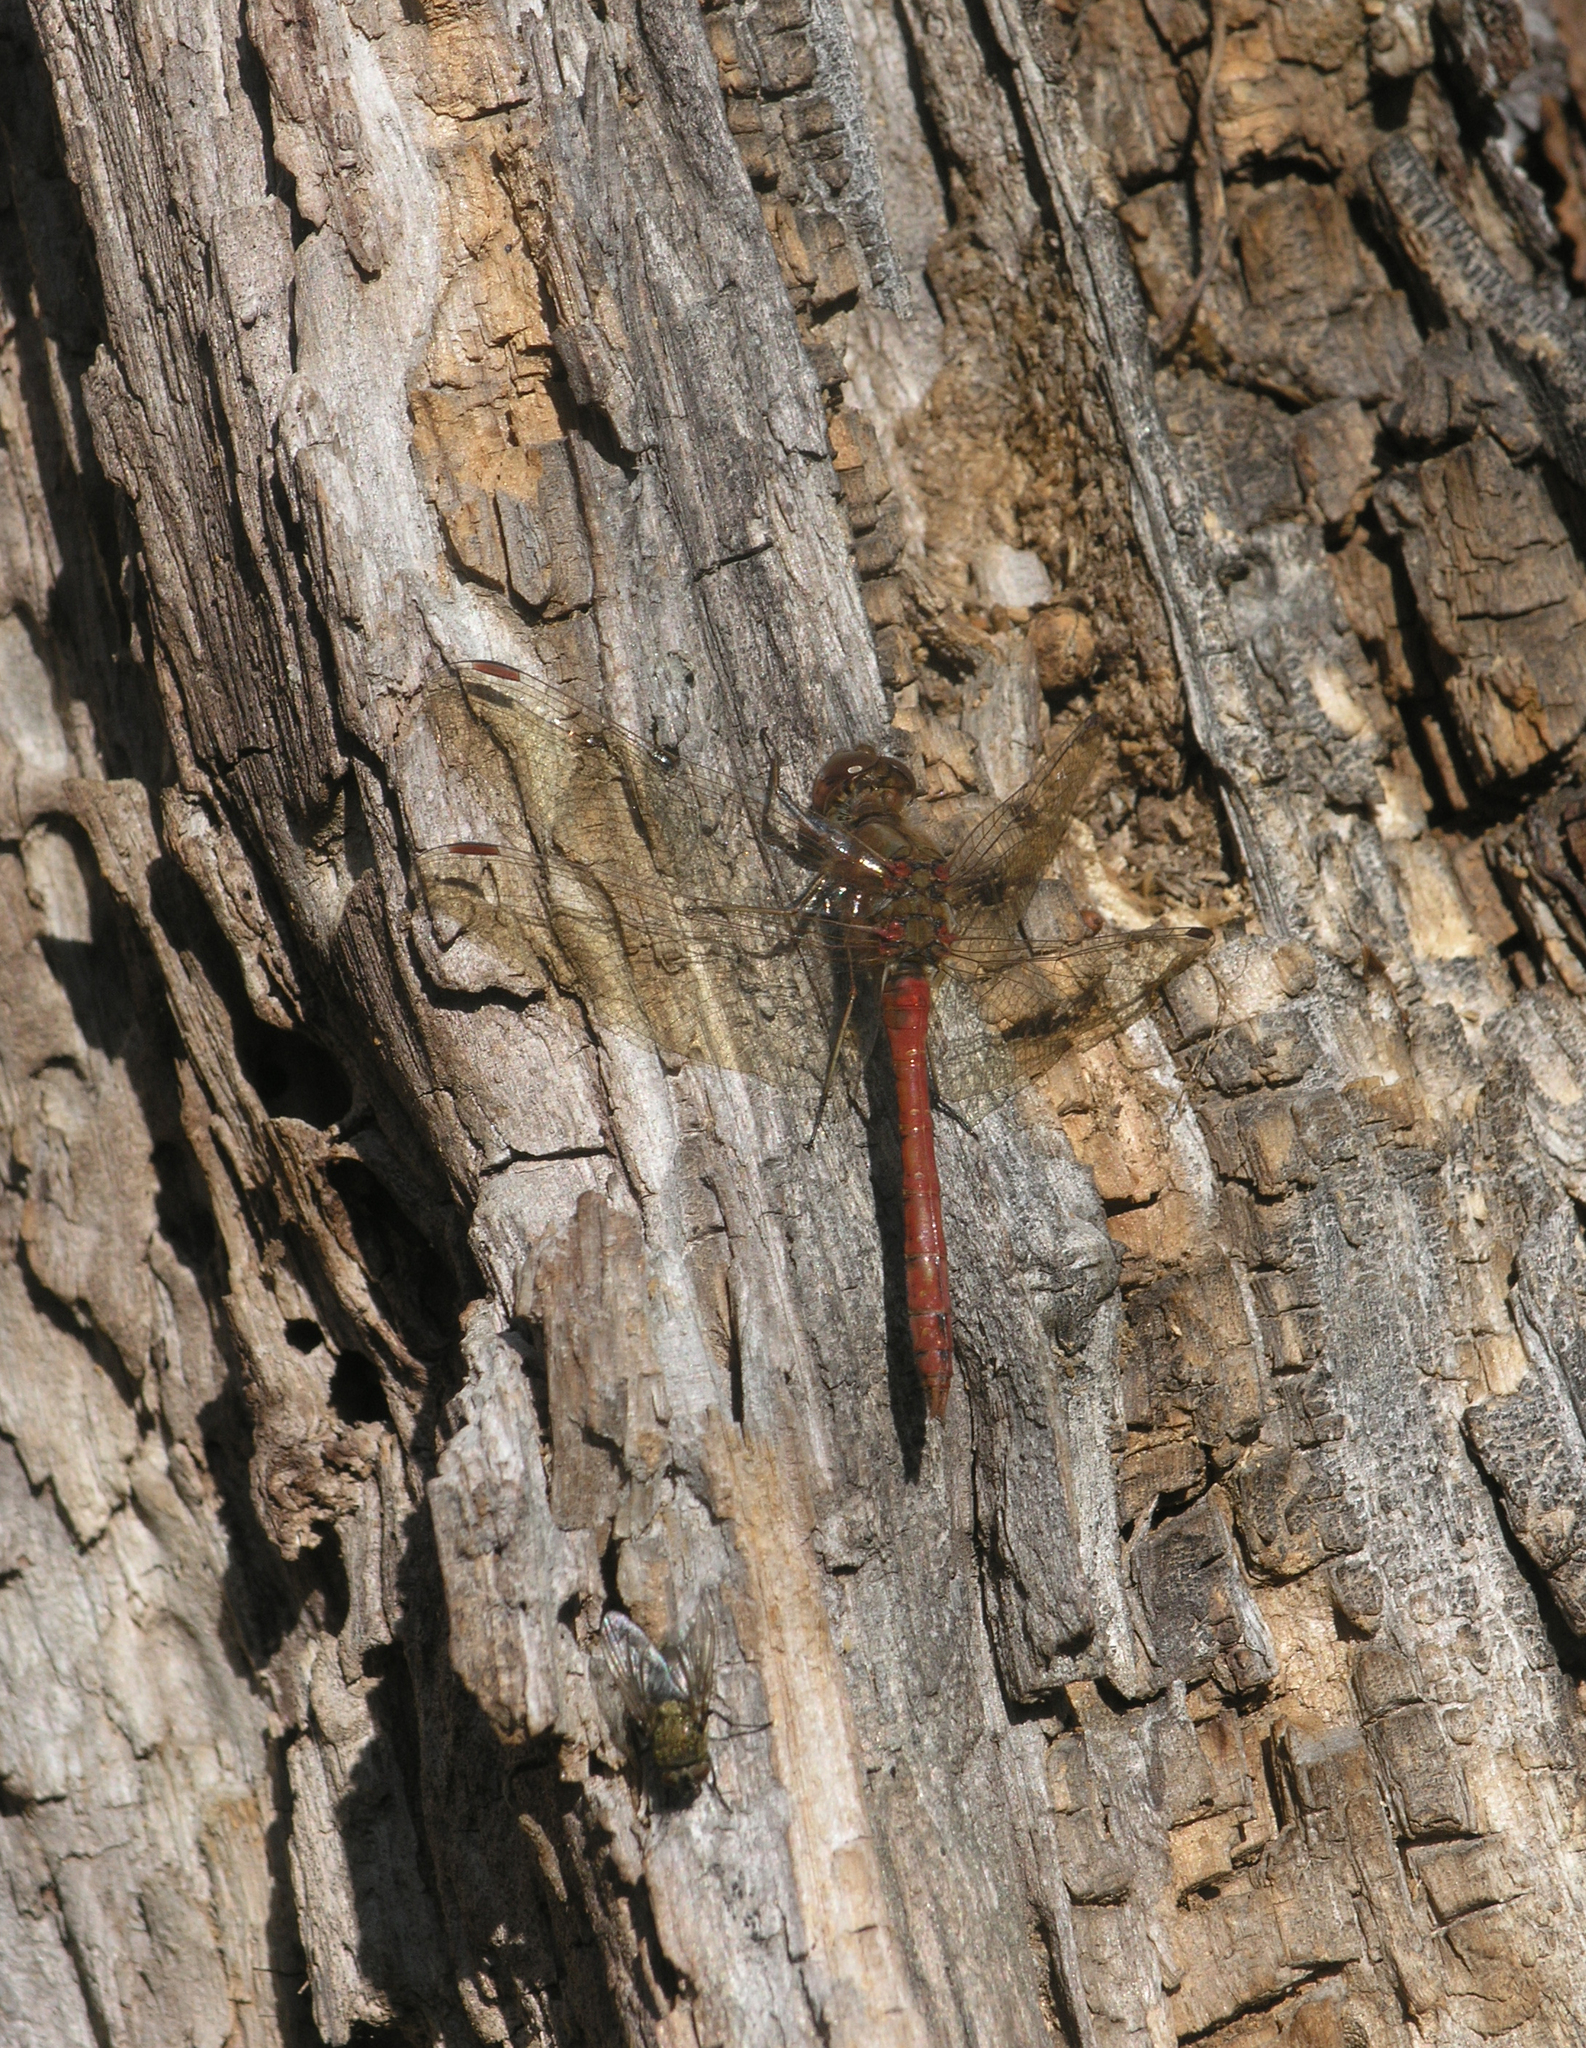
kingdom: Animalia
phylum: Arthropoda
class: Insecta
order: Odonata
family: Libellulidae
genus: Sympetrum
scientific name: Sympetrum vulgatum
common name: Vagrant darter
